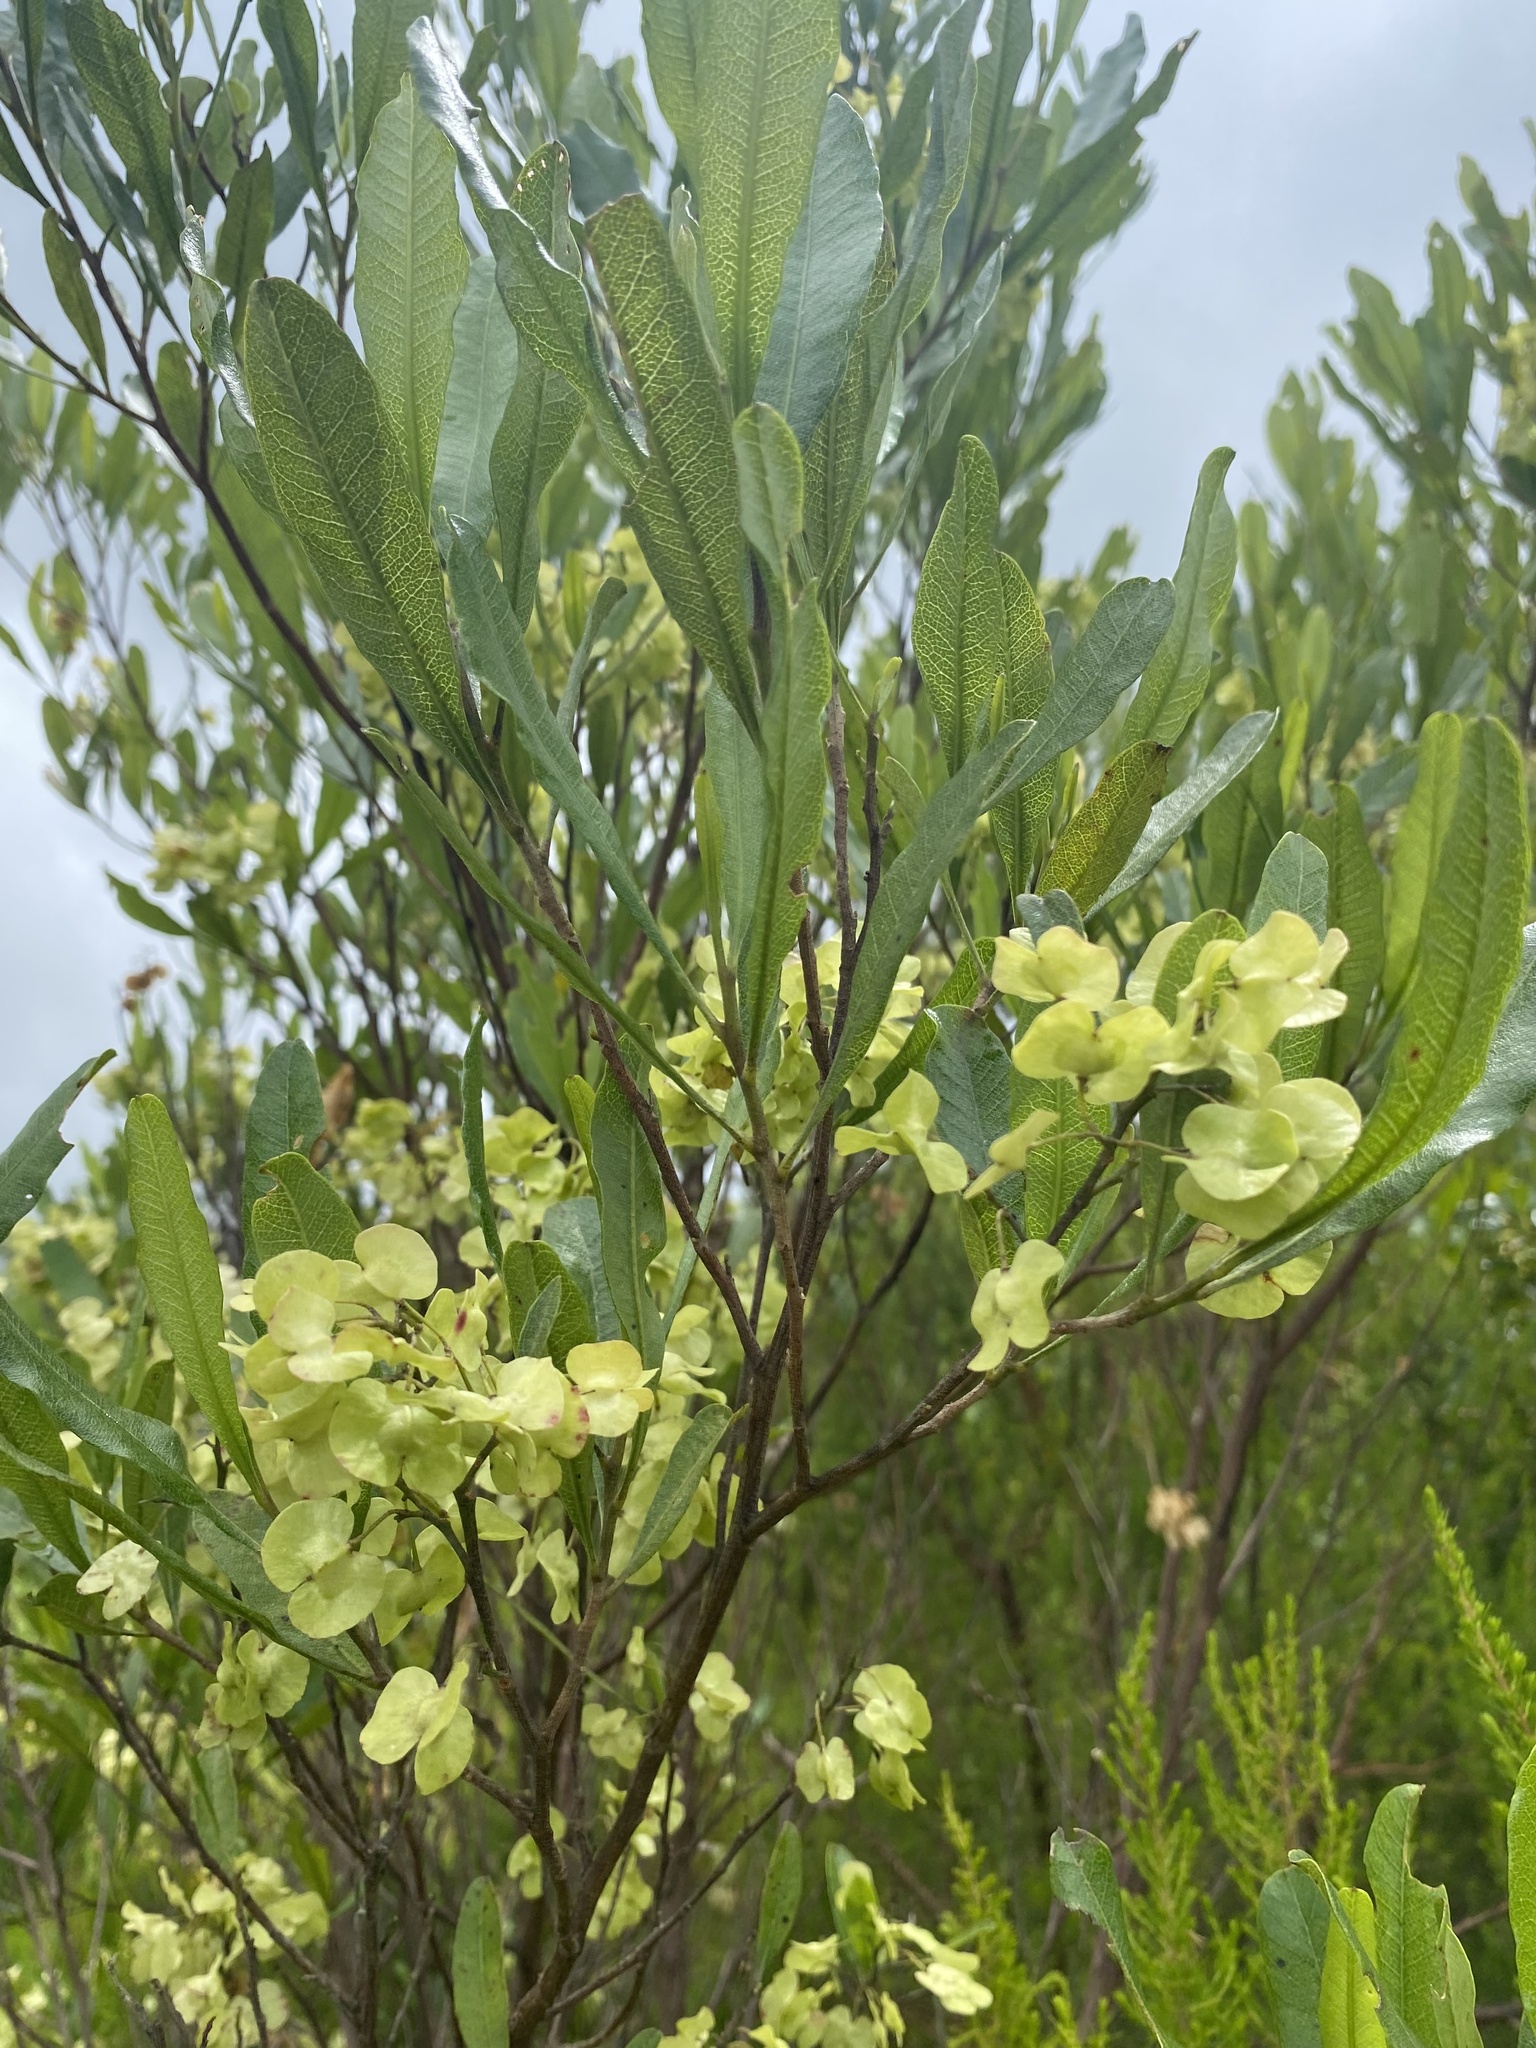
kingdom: Plantae
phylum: Tracheophyta
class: Magnoliopsida
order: Sapindales
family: Sapindaceae
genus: Dodonaea
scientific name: Dodonaea viscosa
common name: Hopbush
